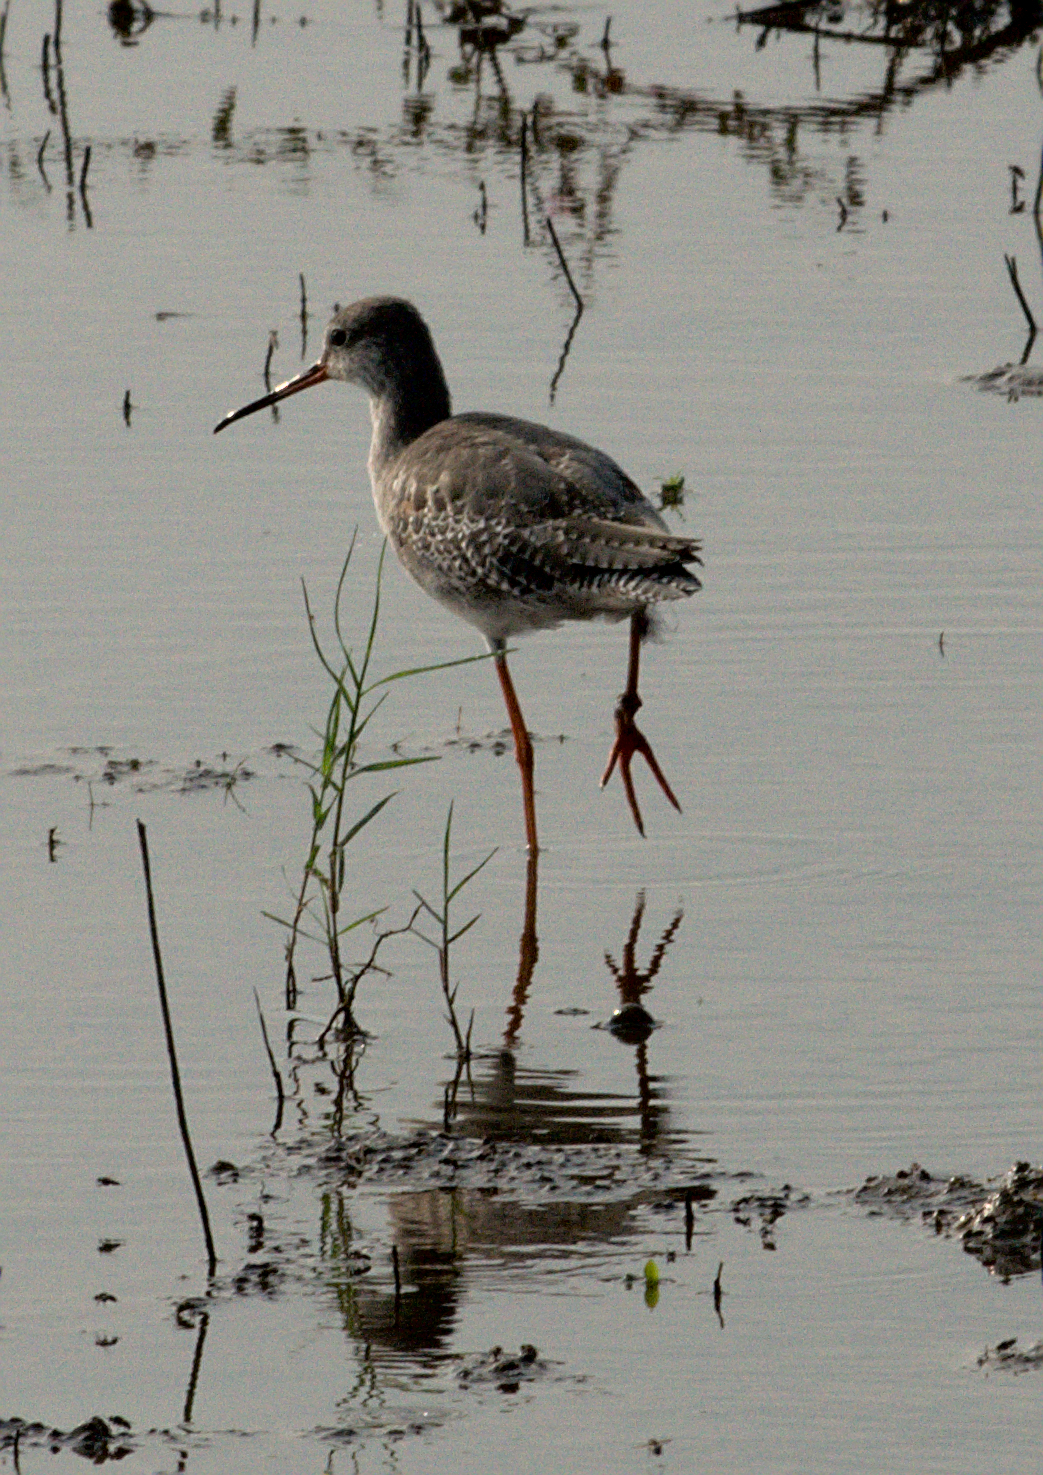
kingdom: Animalia
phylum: Chordata
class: Aves
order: Charadriiformes
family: Scolopacidae
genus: Tringa
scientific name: Tringa erythropus
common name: Spotted redshank
